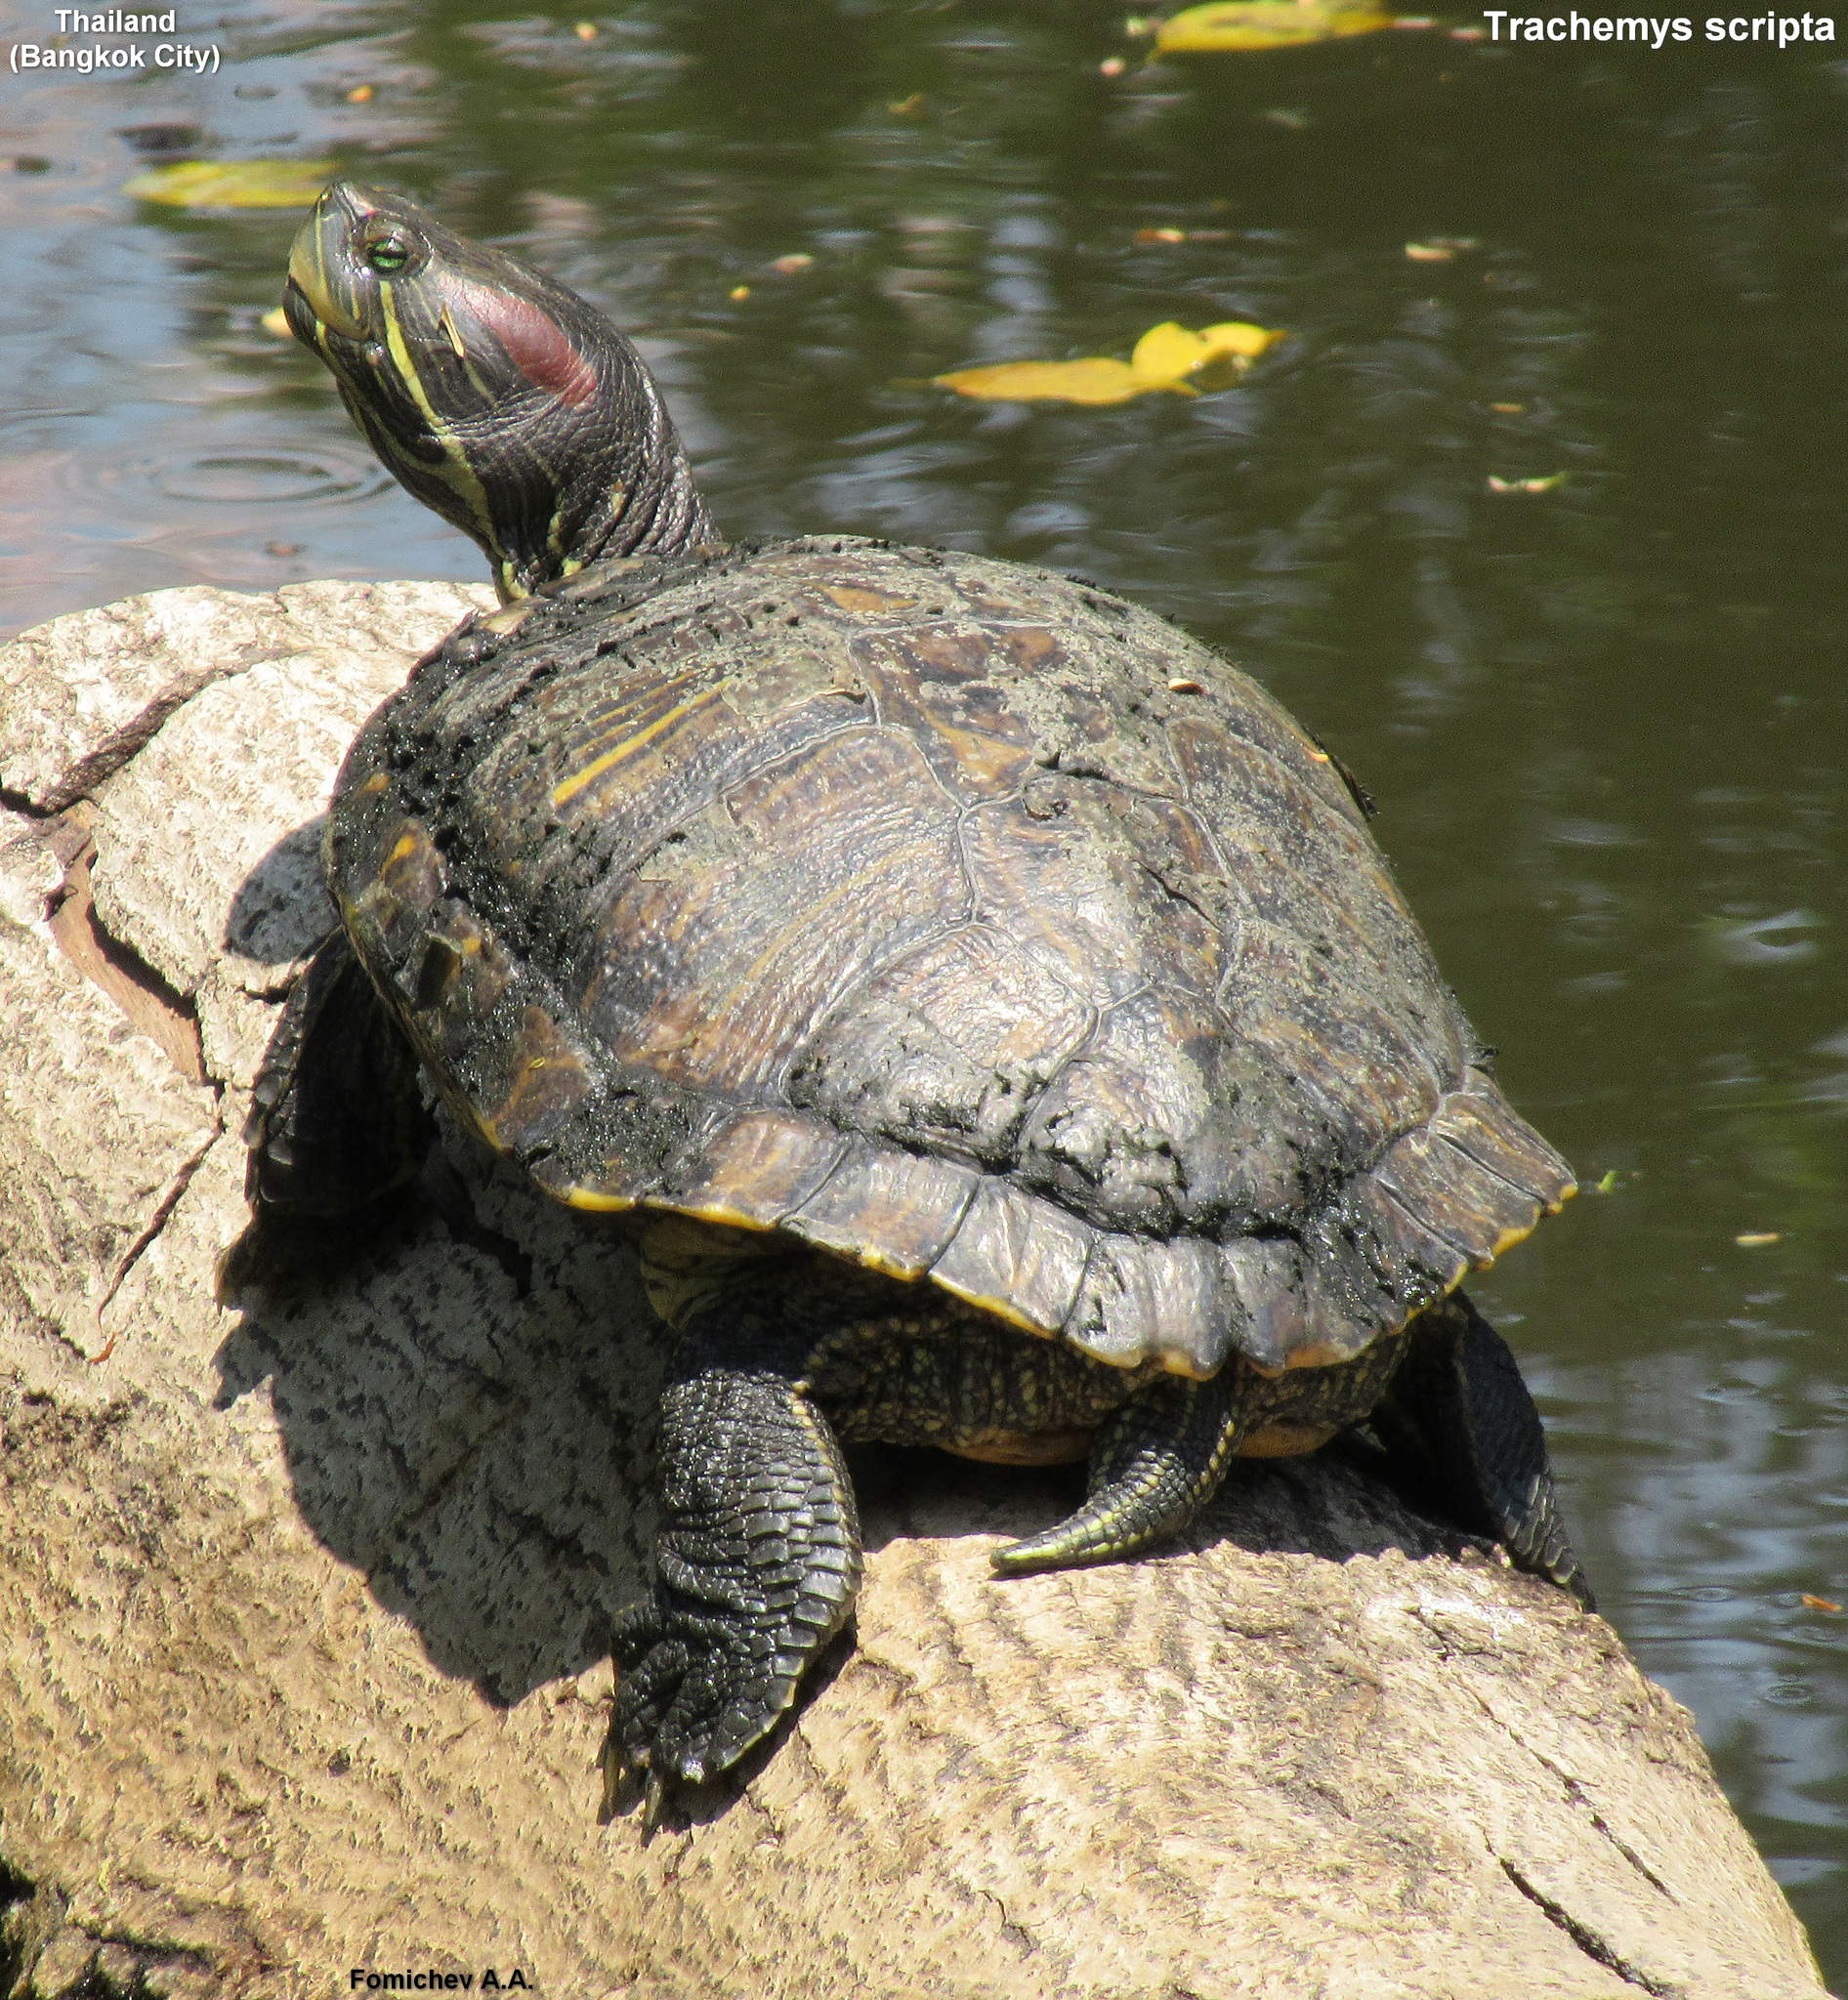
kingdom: Animalia
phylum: Chordata
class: Testudines
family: Emydidae
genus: Trachemys
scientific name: Trachemys scripta
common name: Slider
